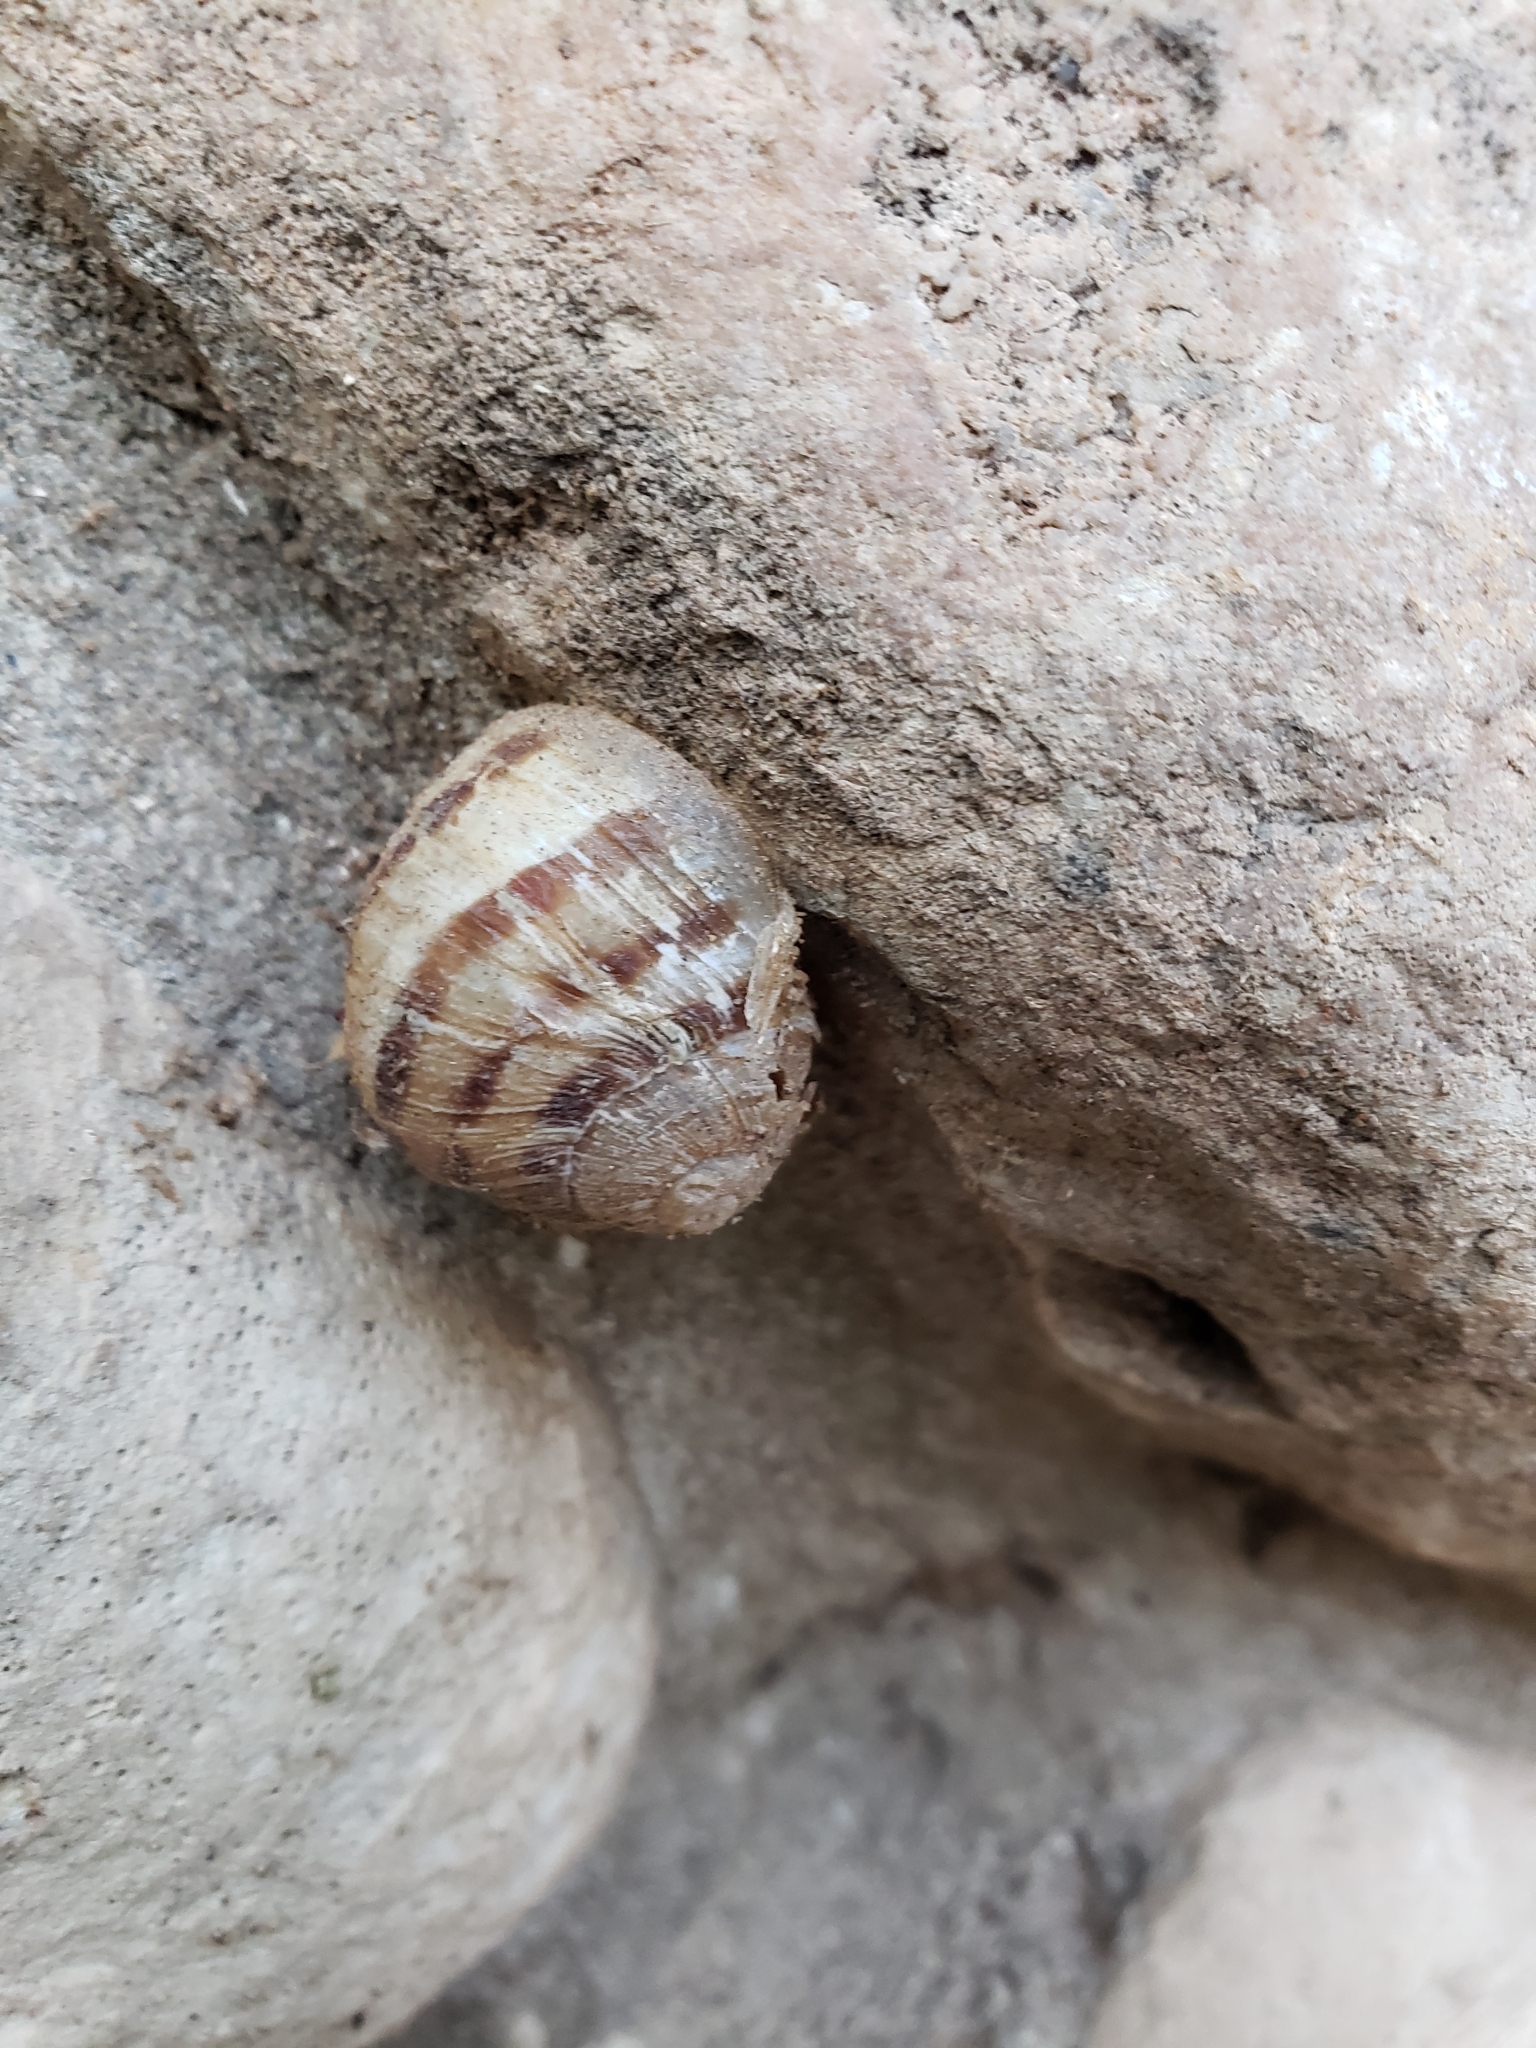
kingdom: Animalia
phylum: Mollusca
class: Gastropoda
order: Stylommatophora
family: Helicidae
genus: Cornu
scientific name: Cornu aspersum
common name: Brown garden snail
